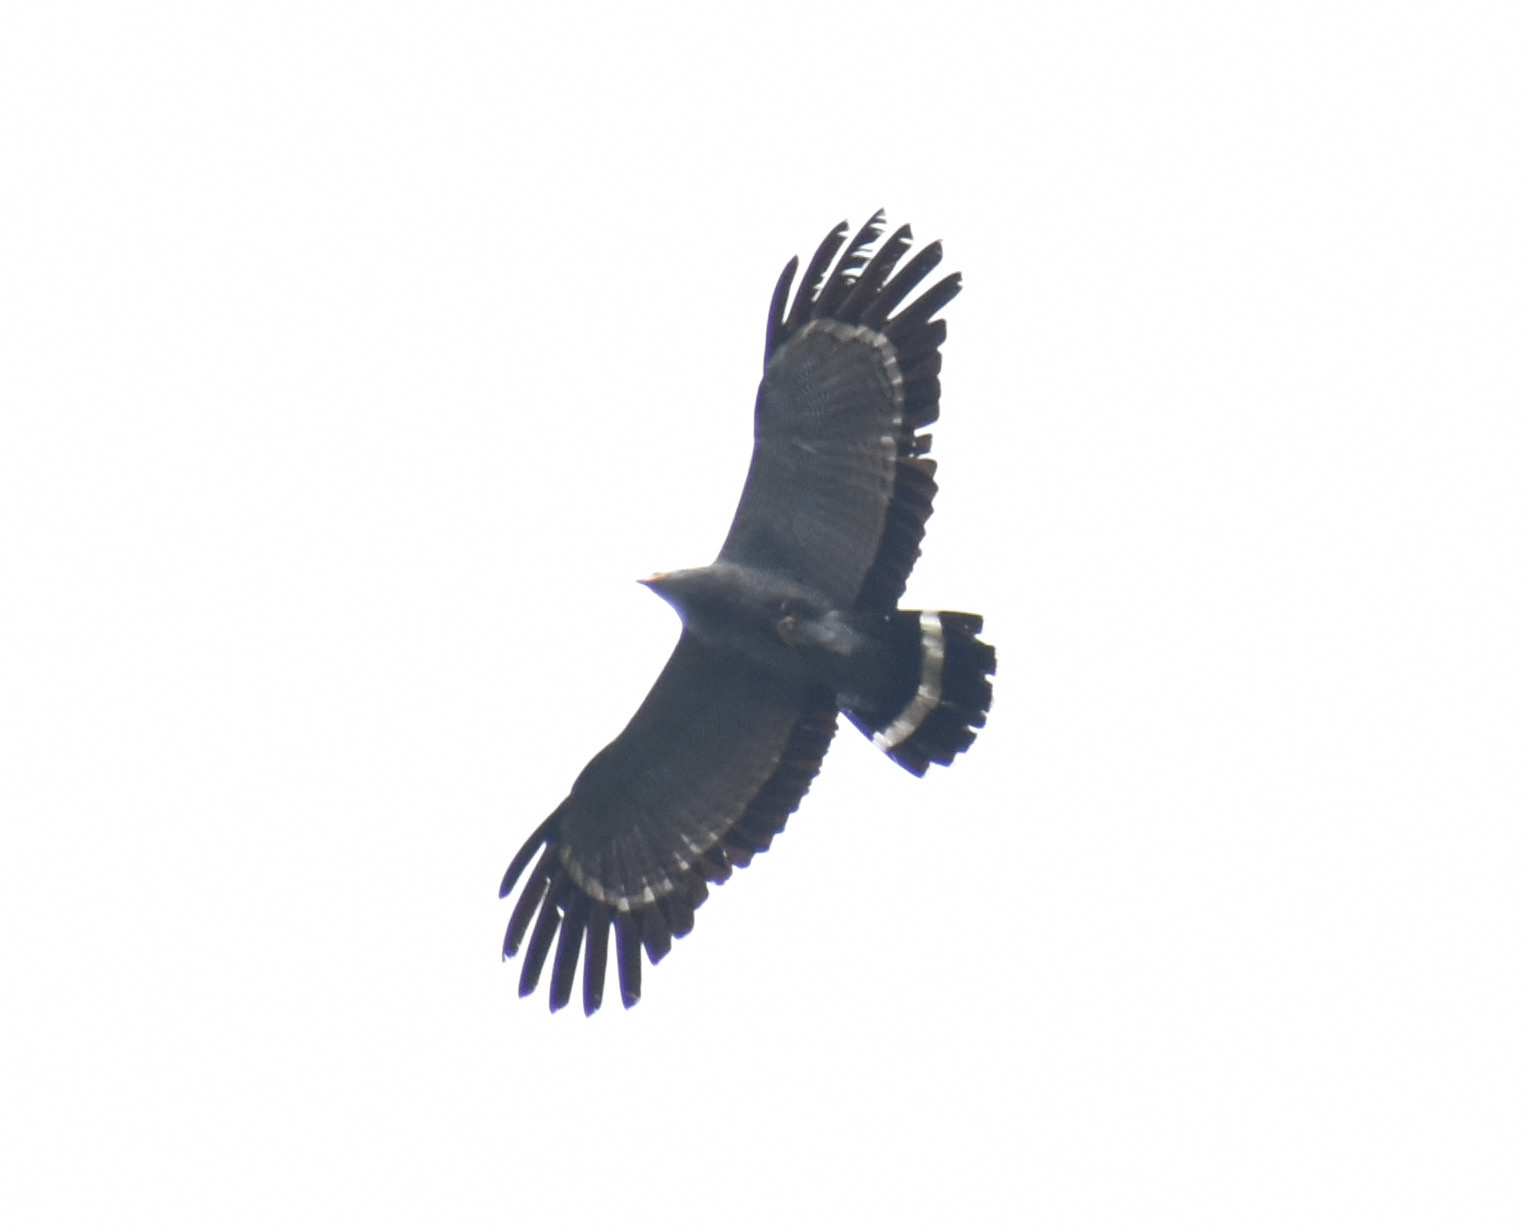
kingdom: Animalia
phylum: Chordata
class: Aves
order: Accipitriformes
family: Accipitridae
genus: Polyboroides
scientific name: Polyboroides typus
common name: African harrier-hawk
